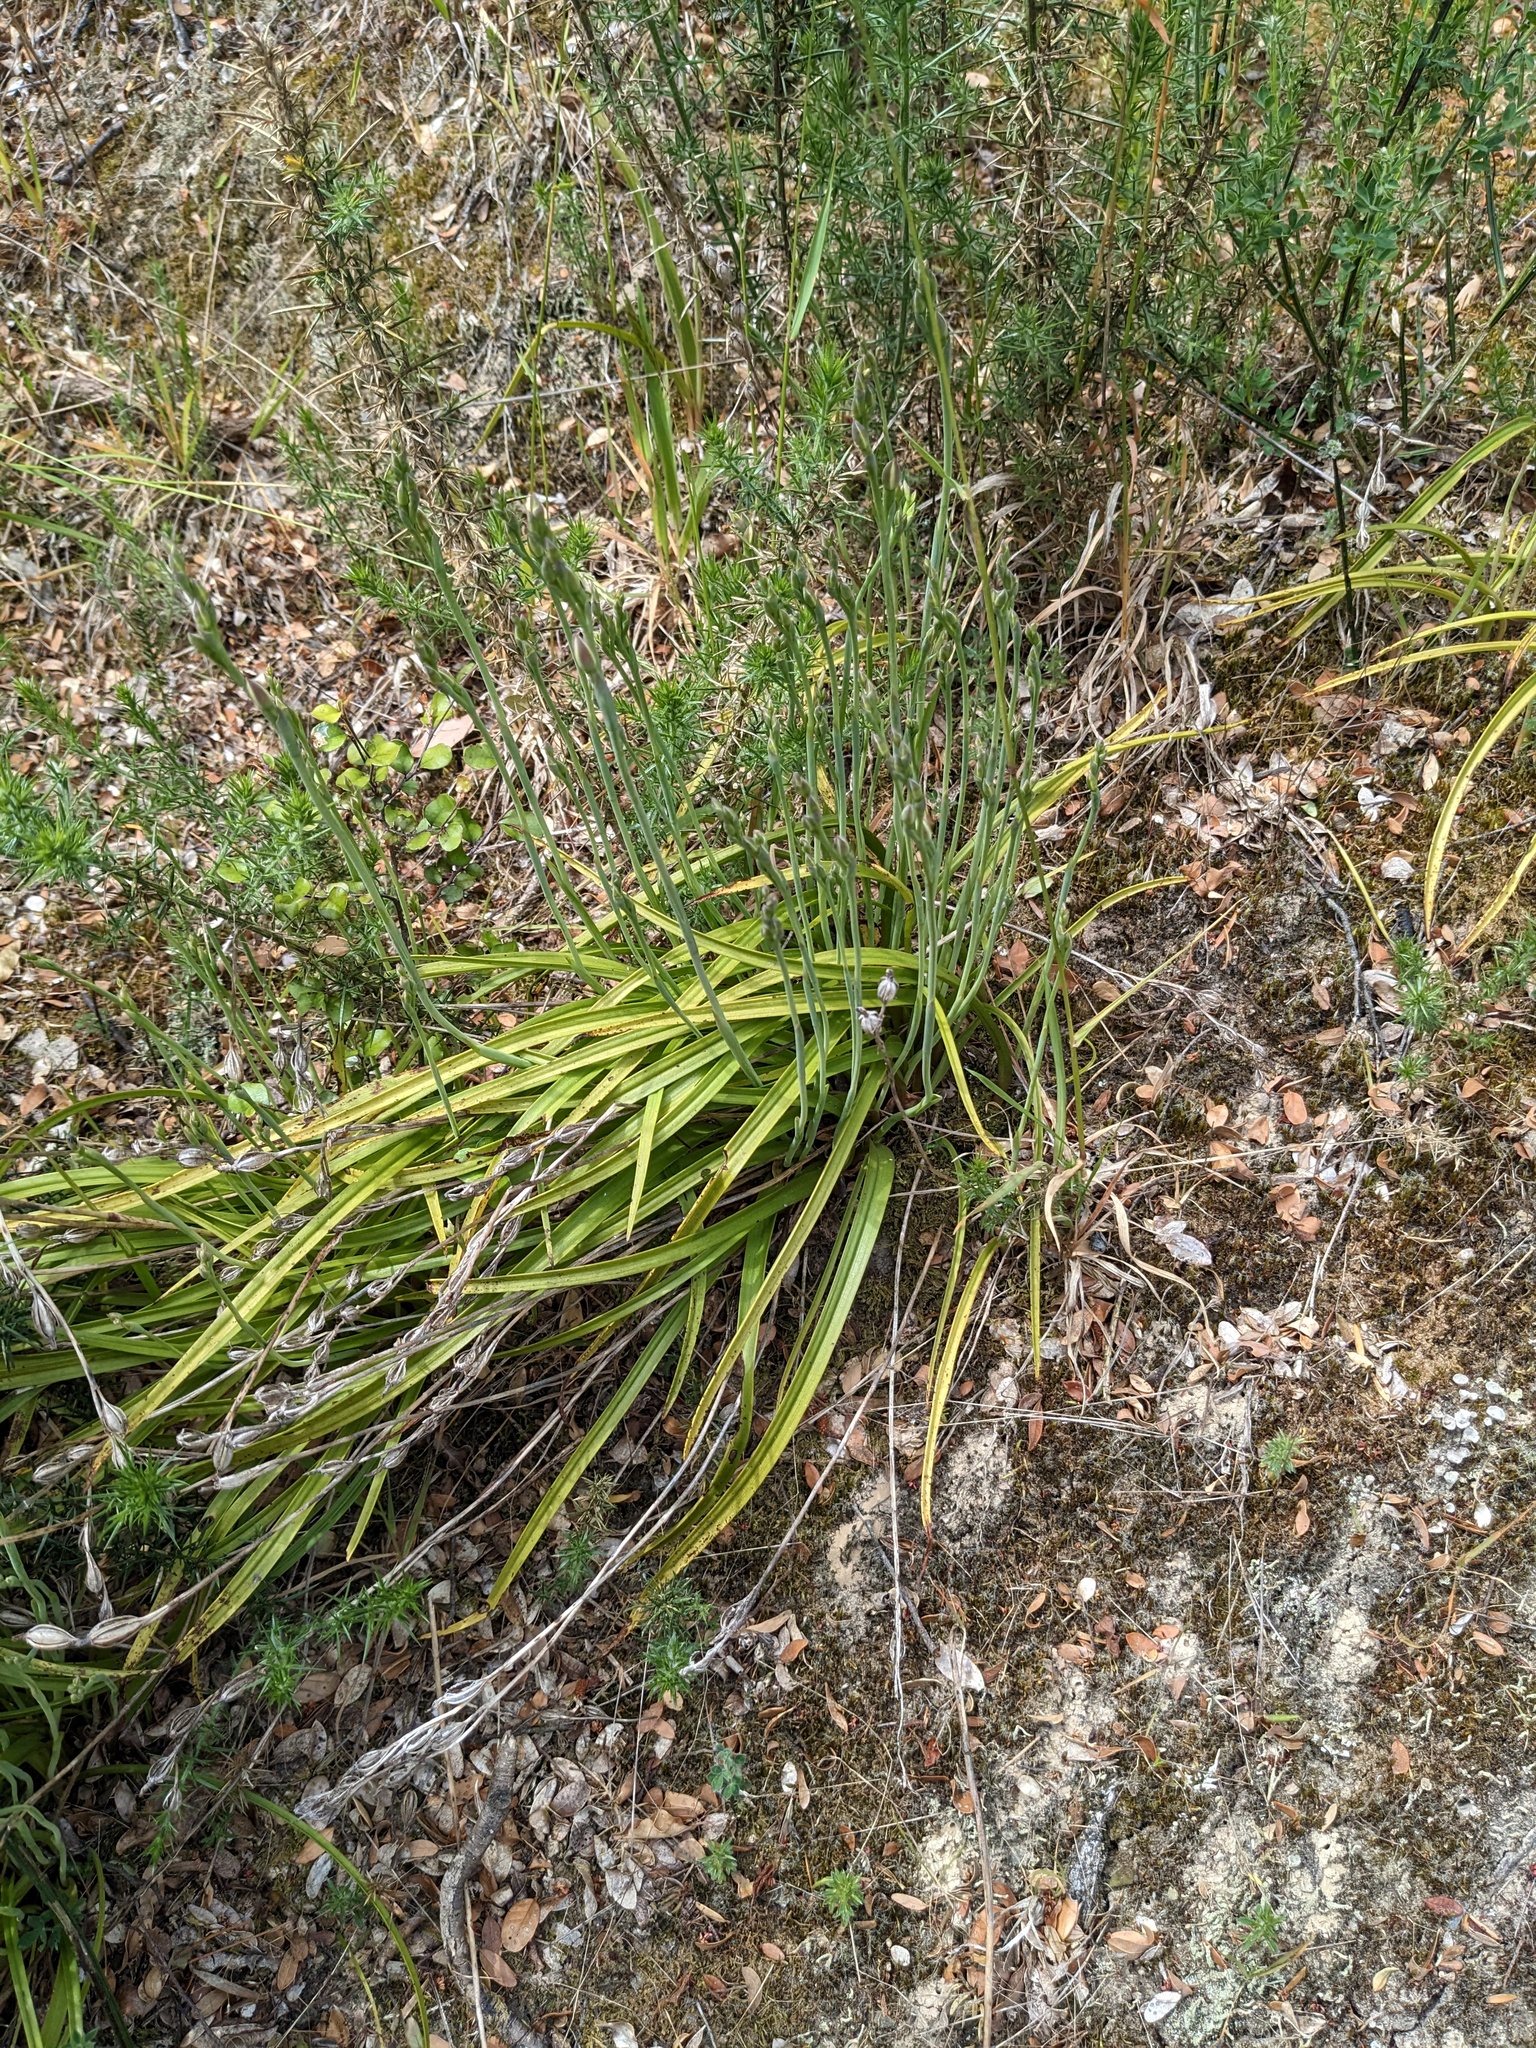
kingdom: Plantae
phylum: Tracheophyta
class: Liliopsida
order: Asparagales
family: Orchidaceae
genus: Thelymitra
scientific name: Thelymitra longifolia
